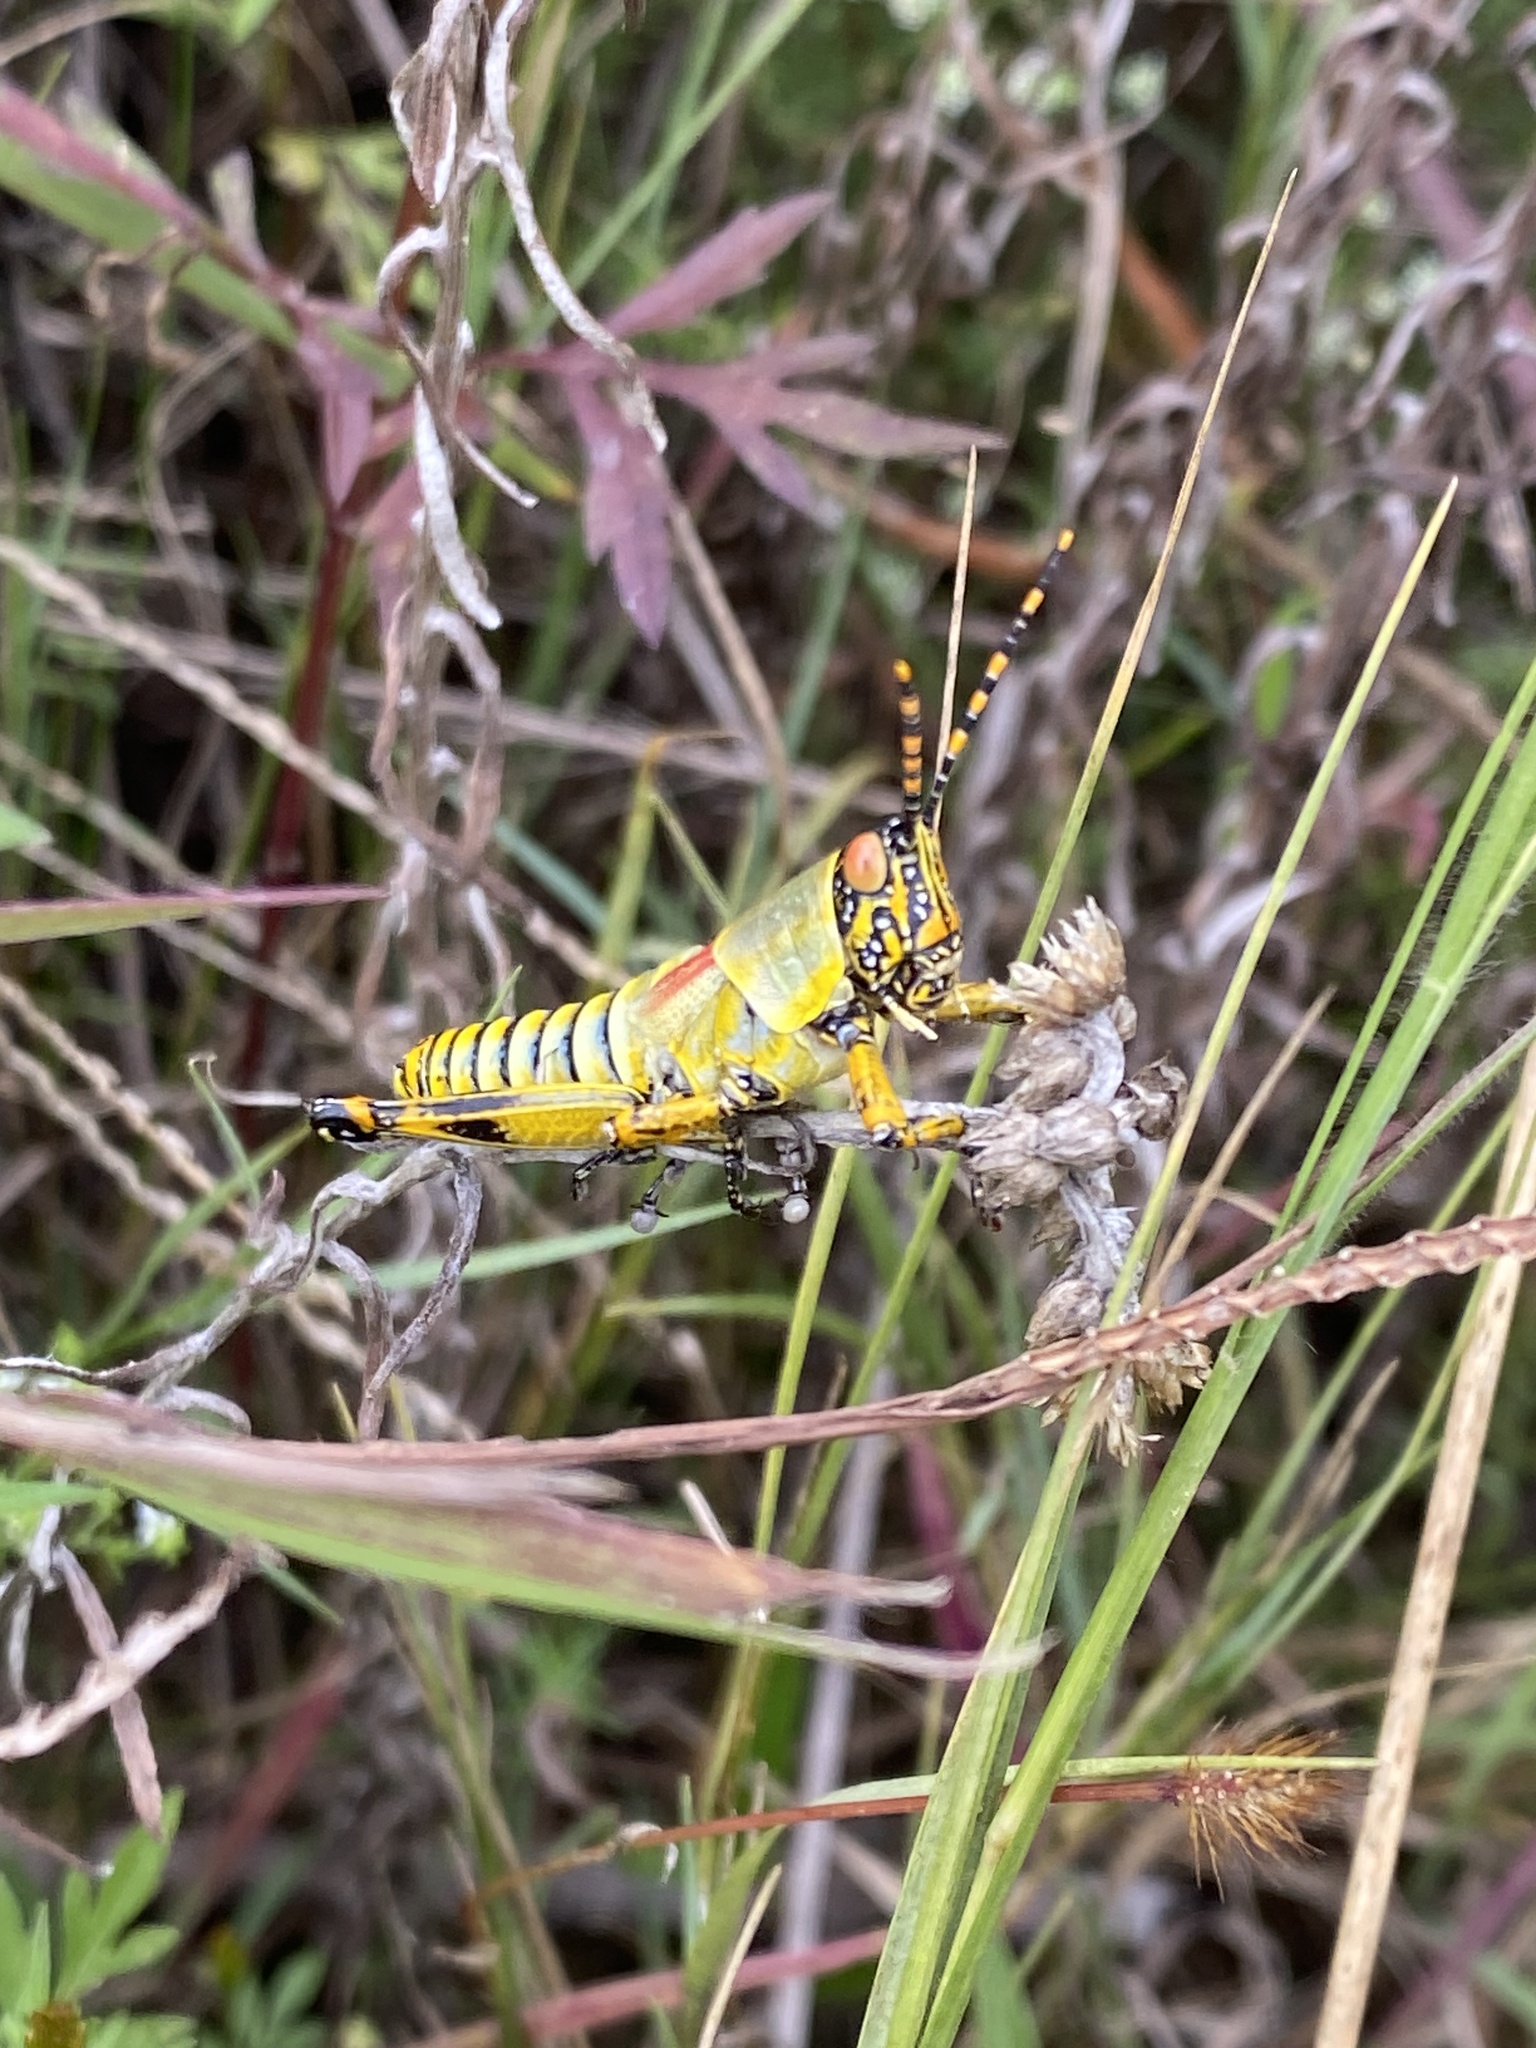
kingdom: Animalia
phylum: Arthropoda
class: Insecta
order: Orthoptera
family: Pyrgomorphidae
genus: Zonocerus
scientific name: Zonocerus elegans
